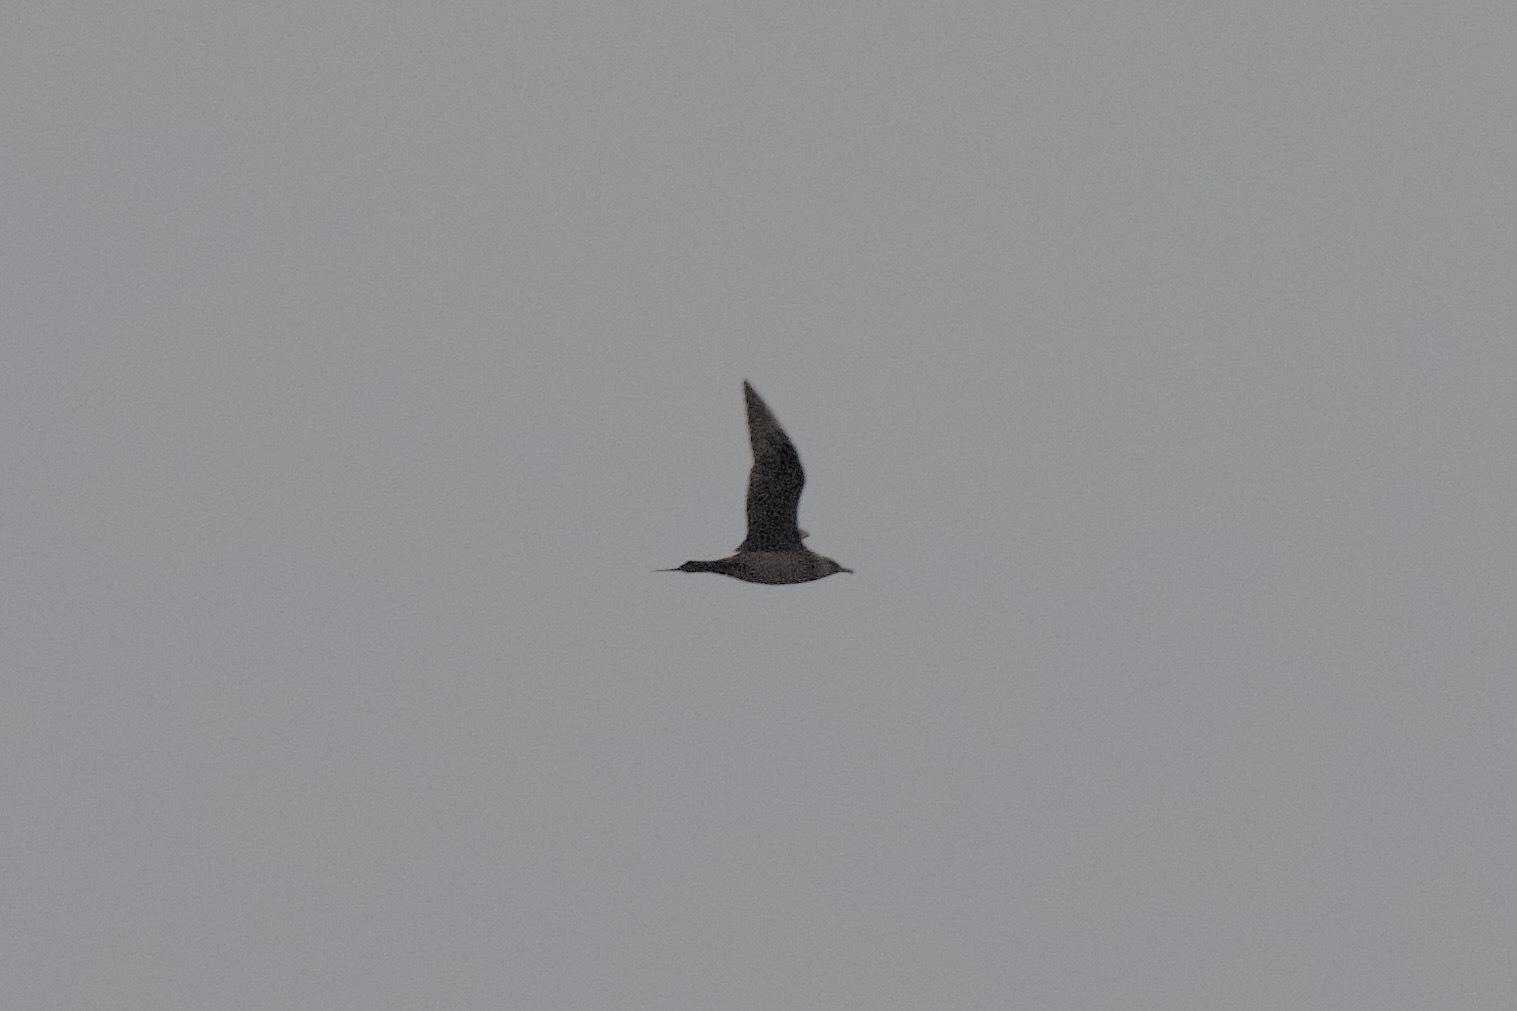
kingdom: Animalia
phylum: Chordata
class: Aves
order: Charadriiformes
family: Stercorariidae
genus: Stercorarius
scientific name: Stercorarius parasiticus
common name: Parasitic jaeger
